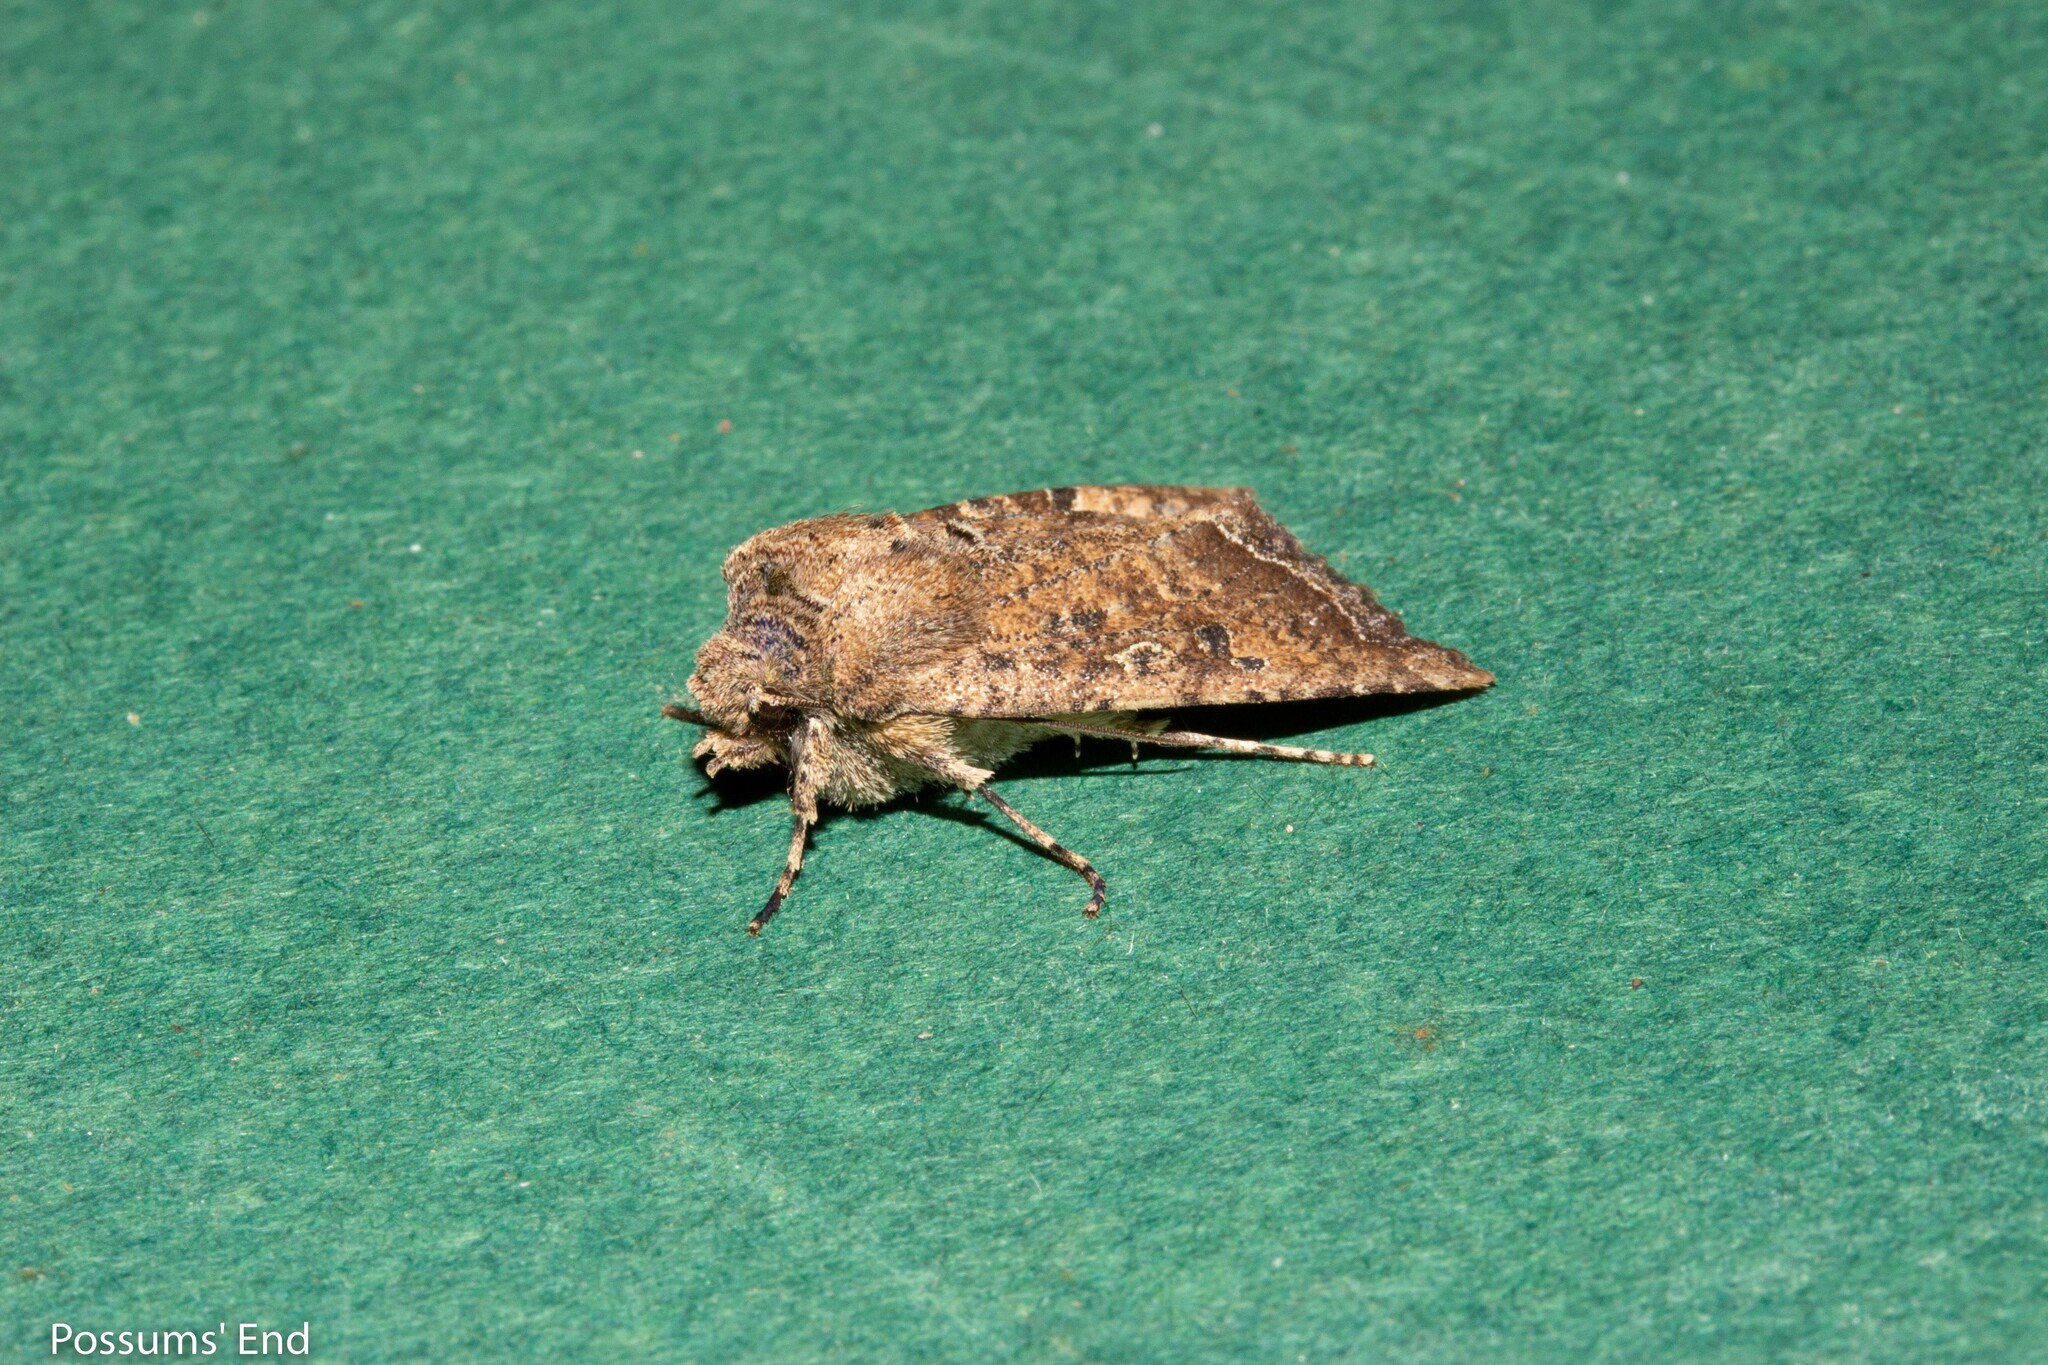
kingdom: Animalia
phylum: Arthropoda
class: Insecta
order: Lepidoptera
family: Noctuidae
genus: Meterana
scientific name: Meterana inchoata
